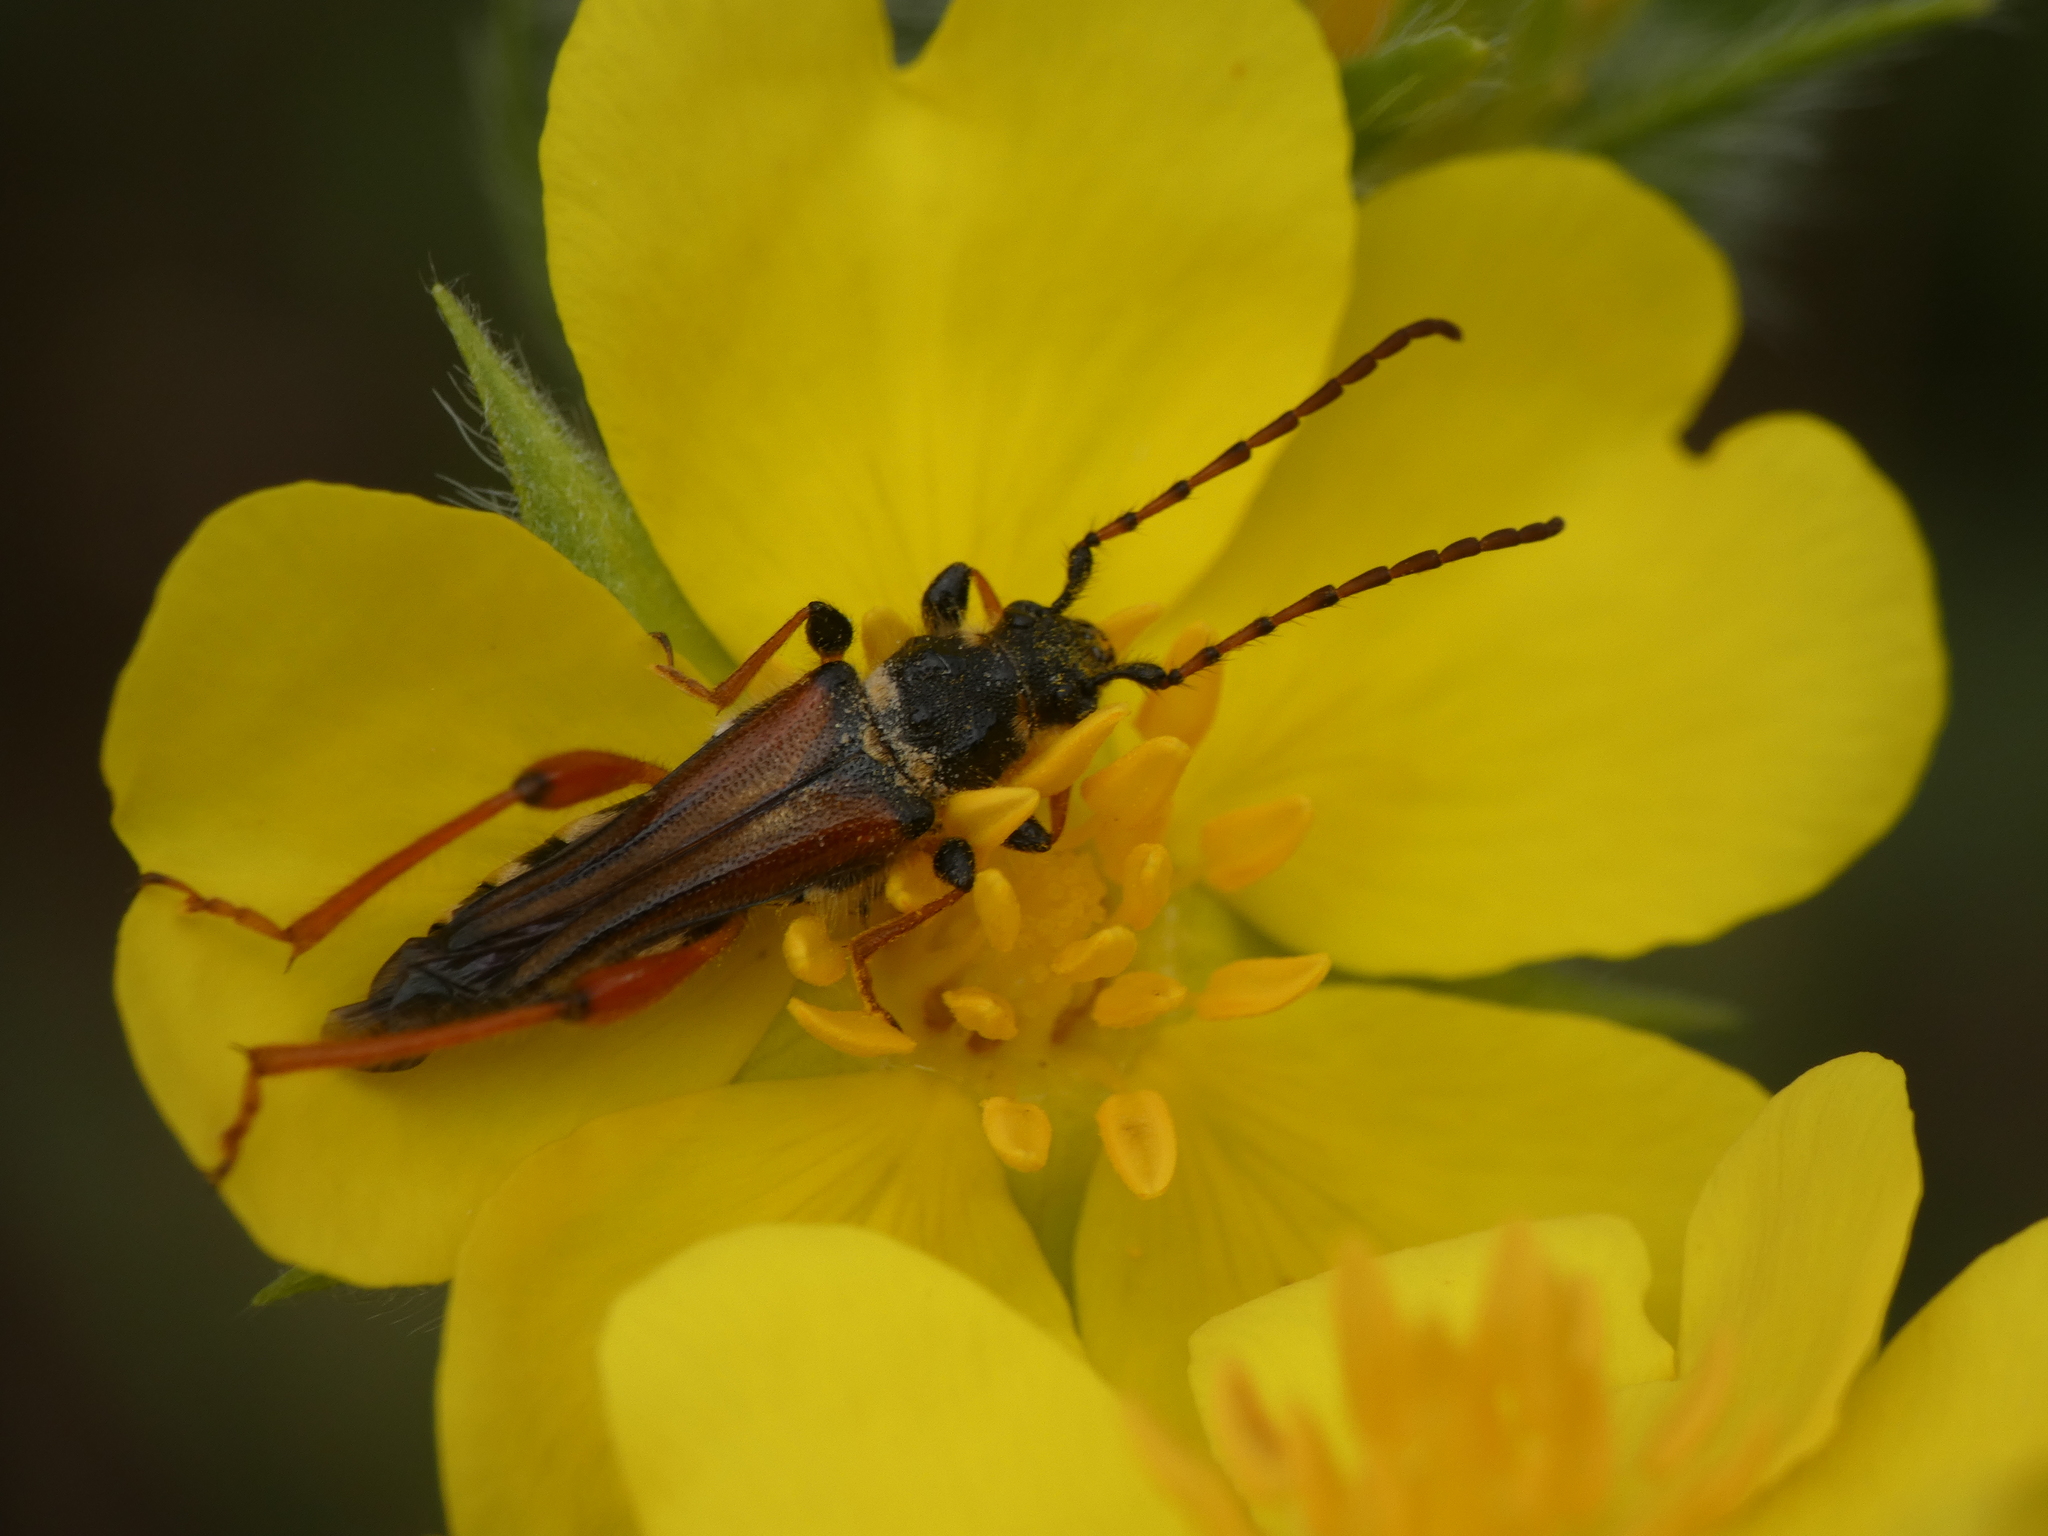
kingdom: Animalia
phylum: Arthropoda
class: Insecta
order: Coleoptera
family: Cerambycidae
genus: Stenopterus
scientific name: Stenopterus rufus
